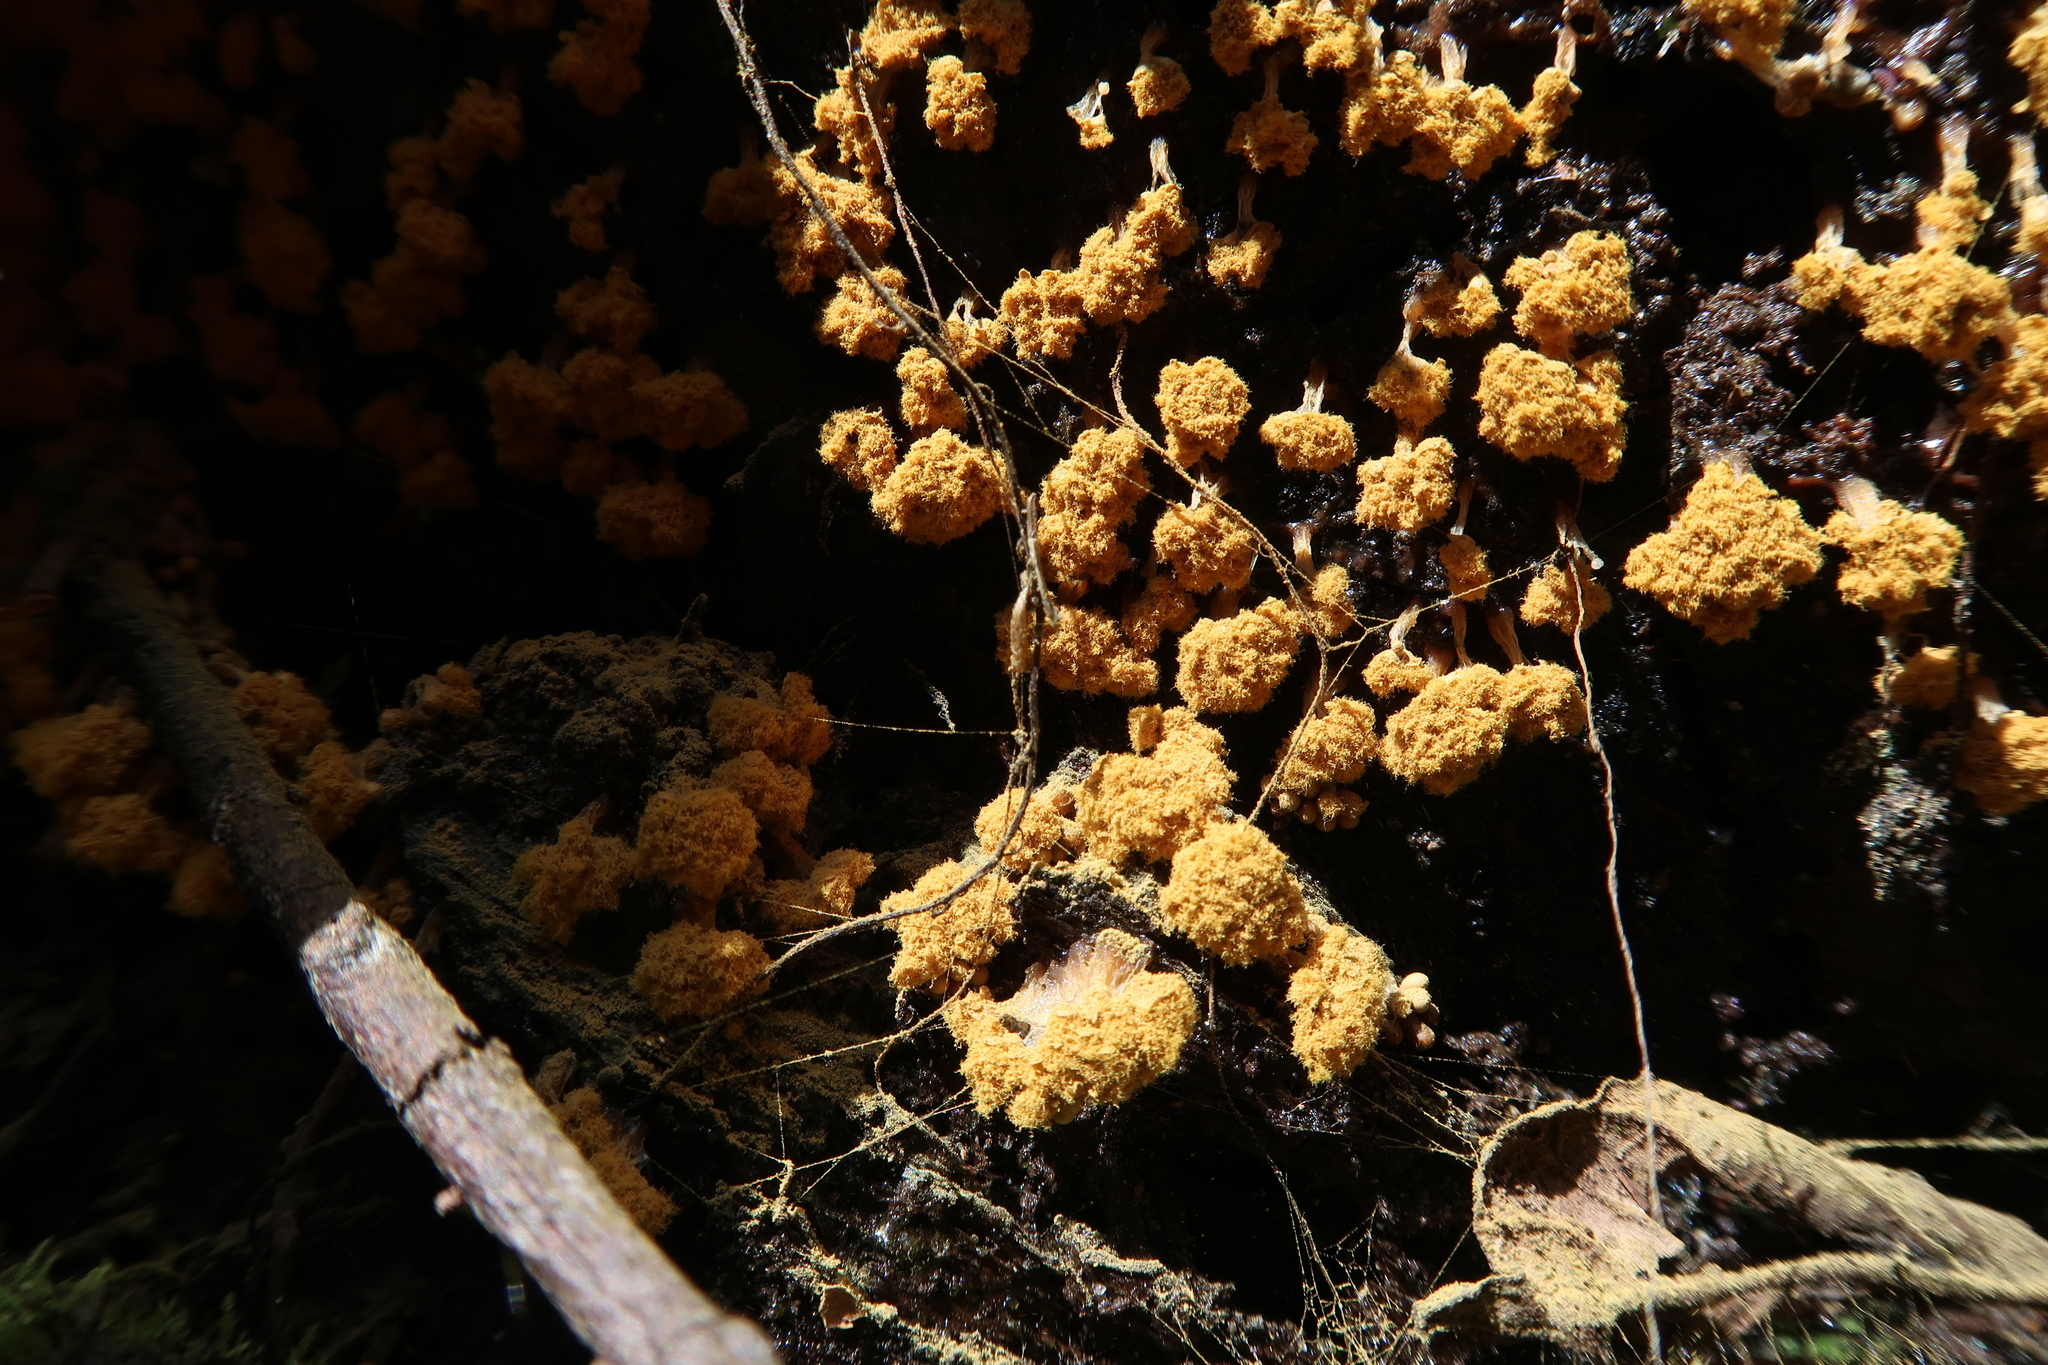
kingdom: Protozoa
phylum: Mycetozoa
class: Myxomycetes
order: Trichiales
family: Trichiaceae
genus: Oligonema
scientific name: Oligonema verrucosum
